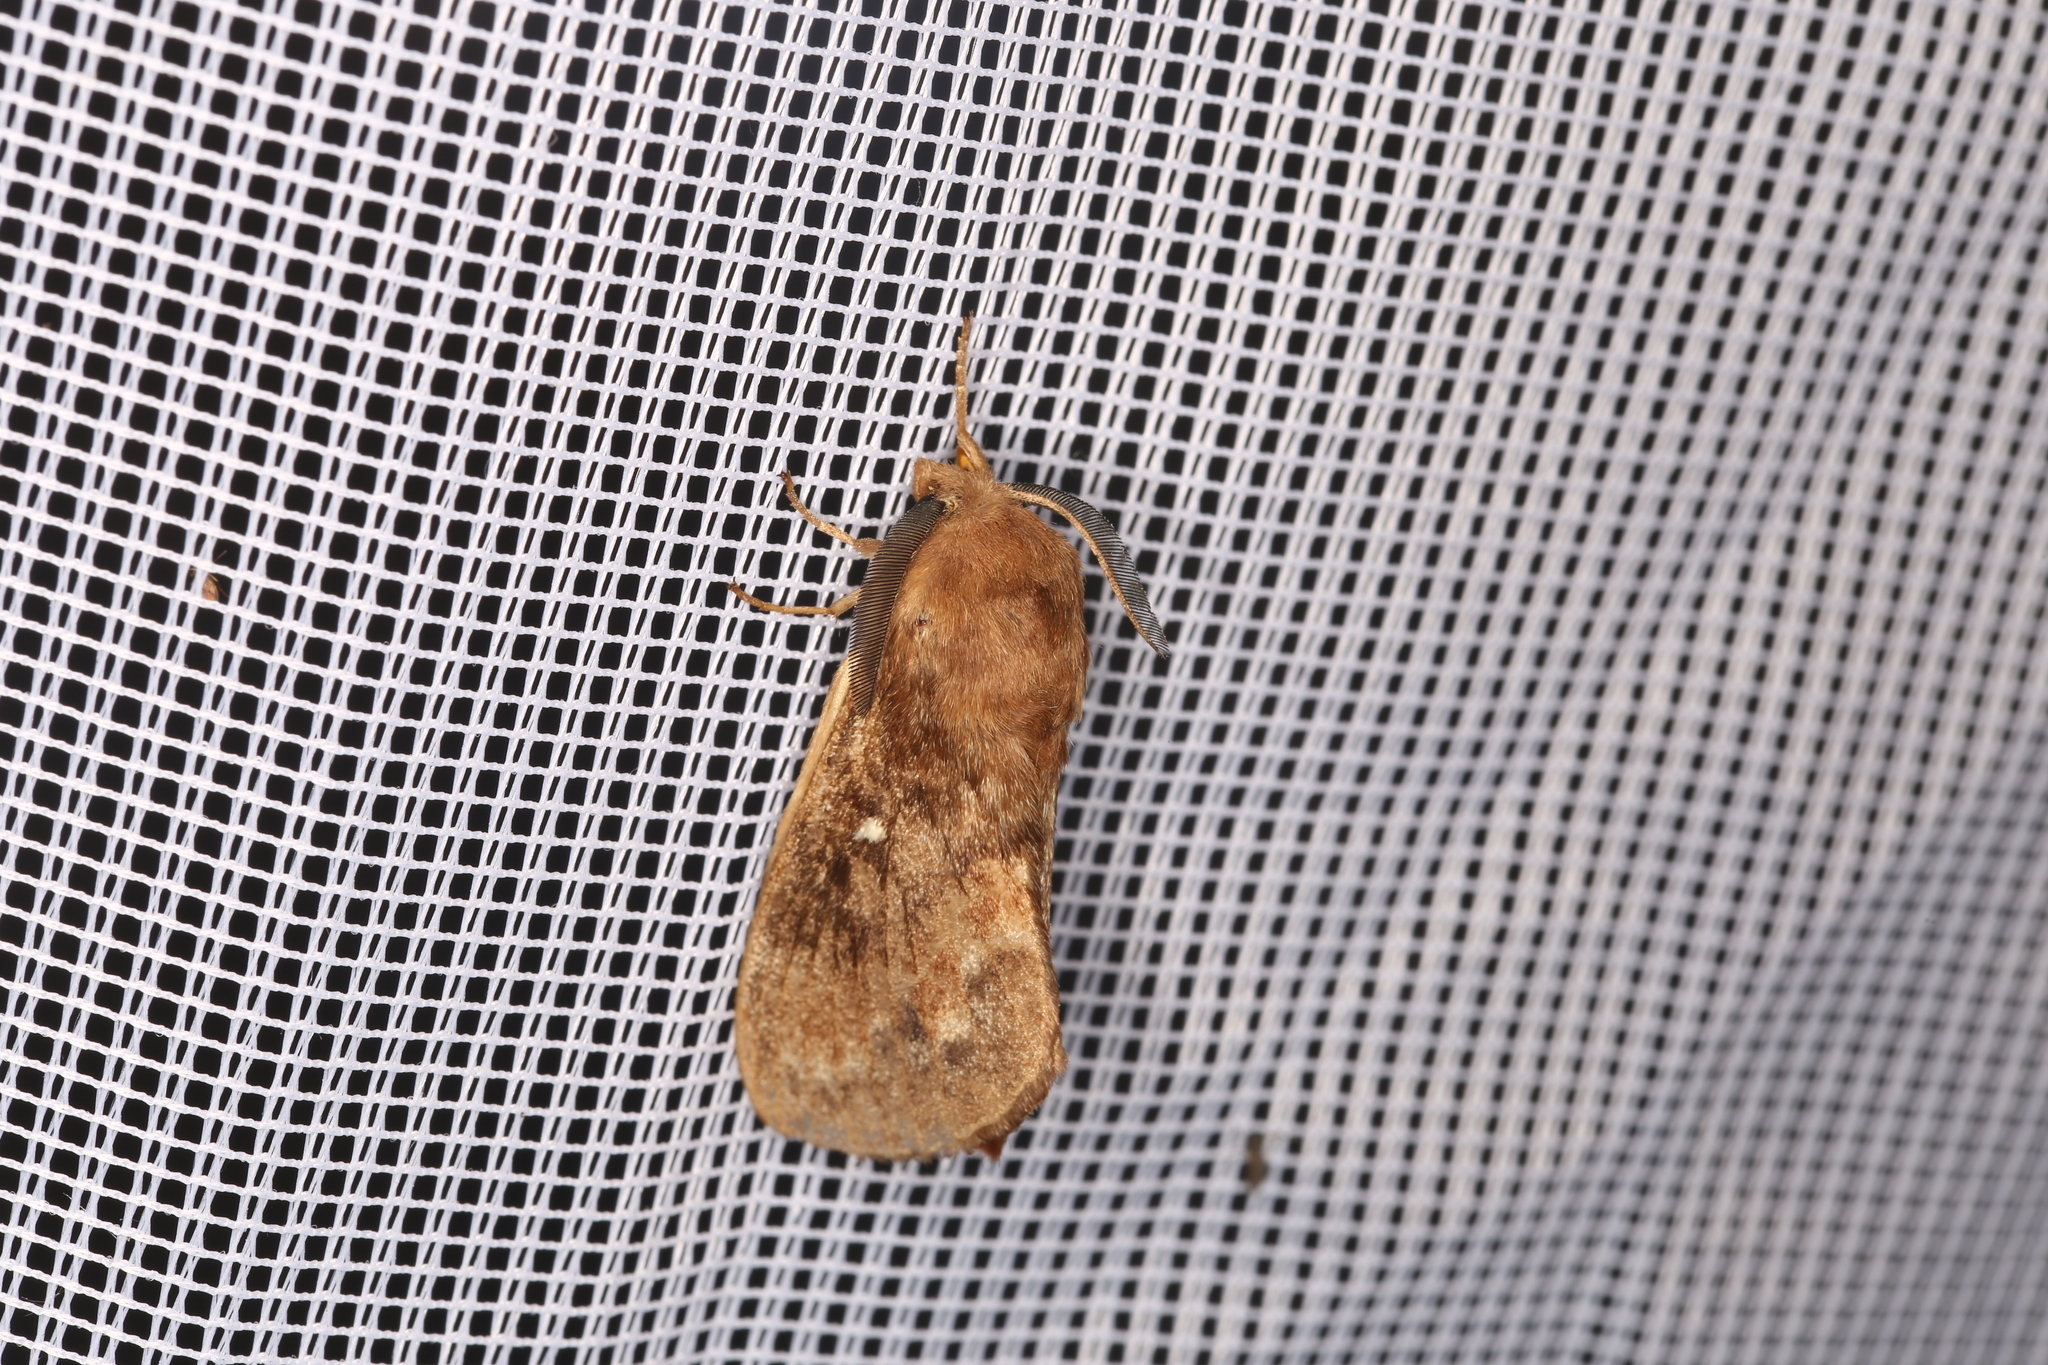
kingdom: Animalia
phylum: Arthropoda
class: Insecta
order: Lepidoptera
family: Lasiocampidae
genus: Dendrolimus
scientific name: Dendrolimus pini
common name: Pine-tree lappet
